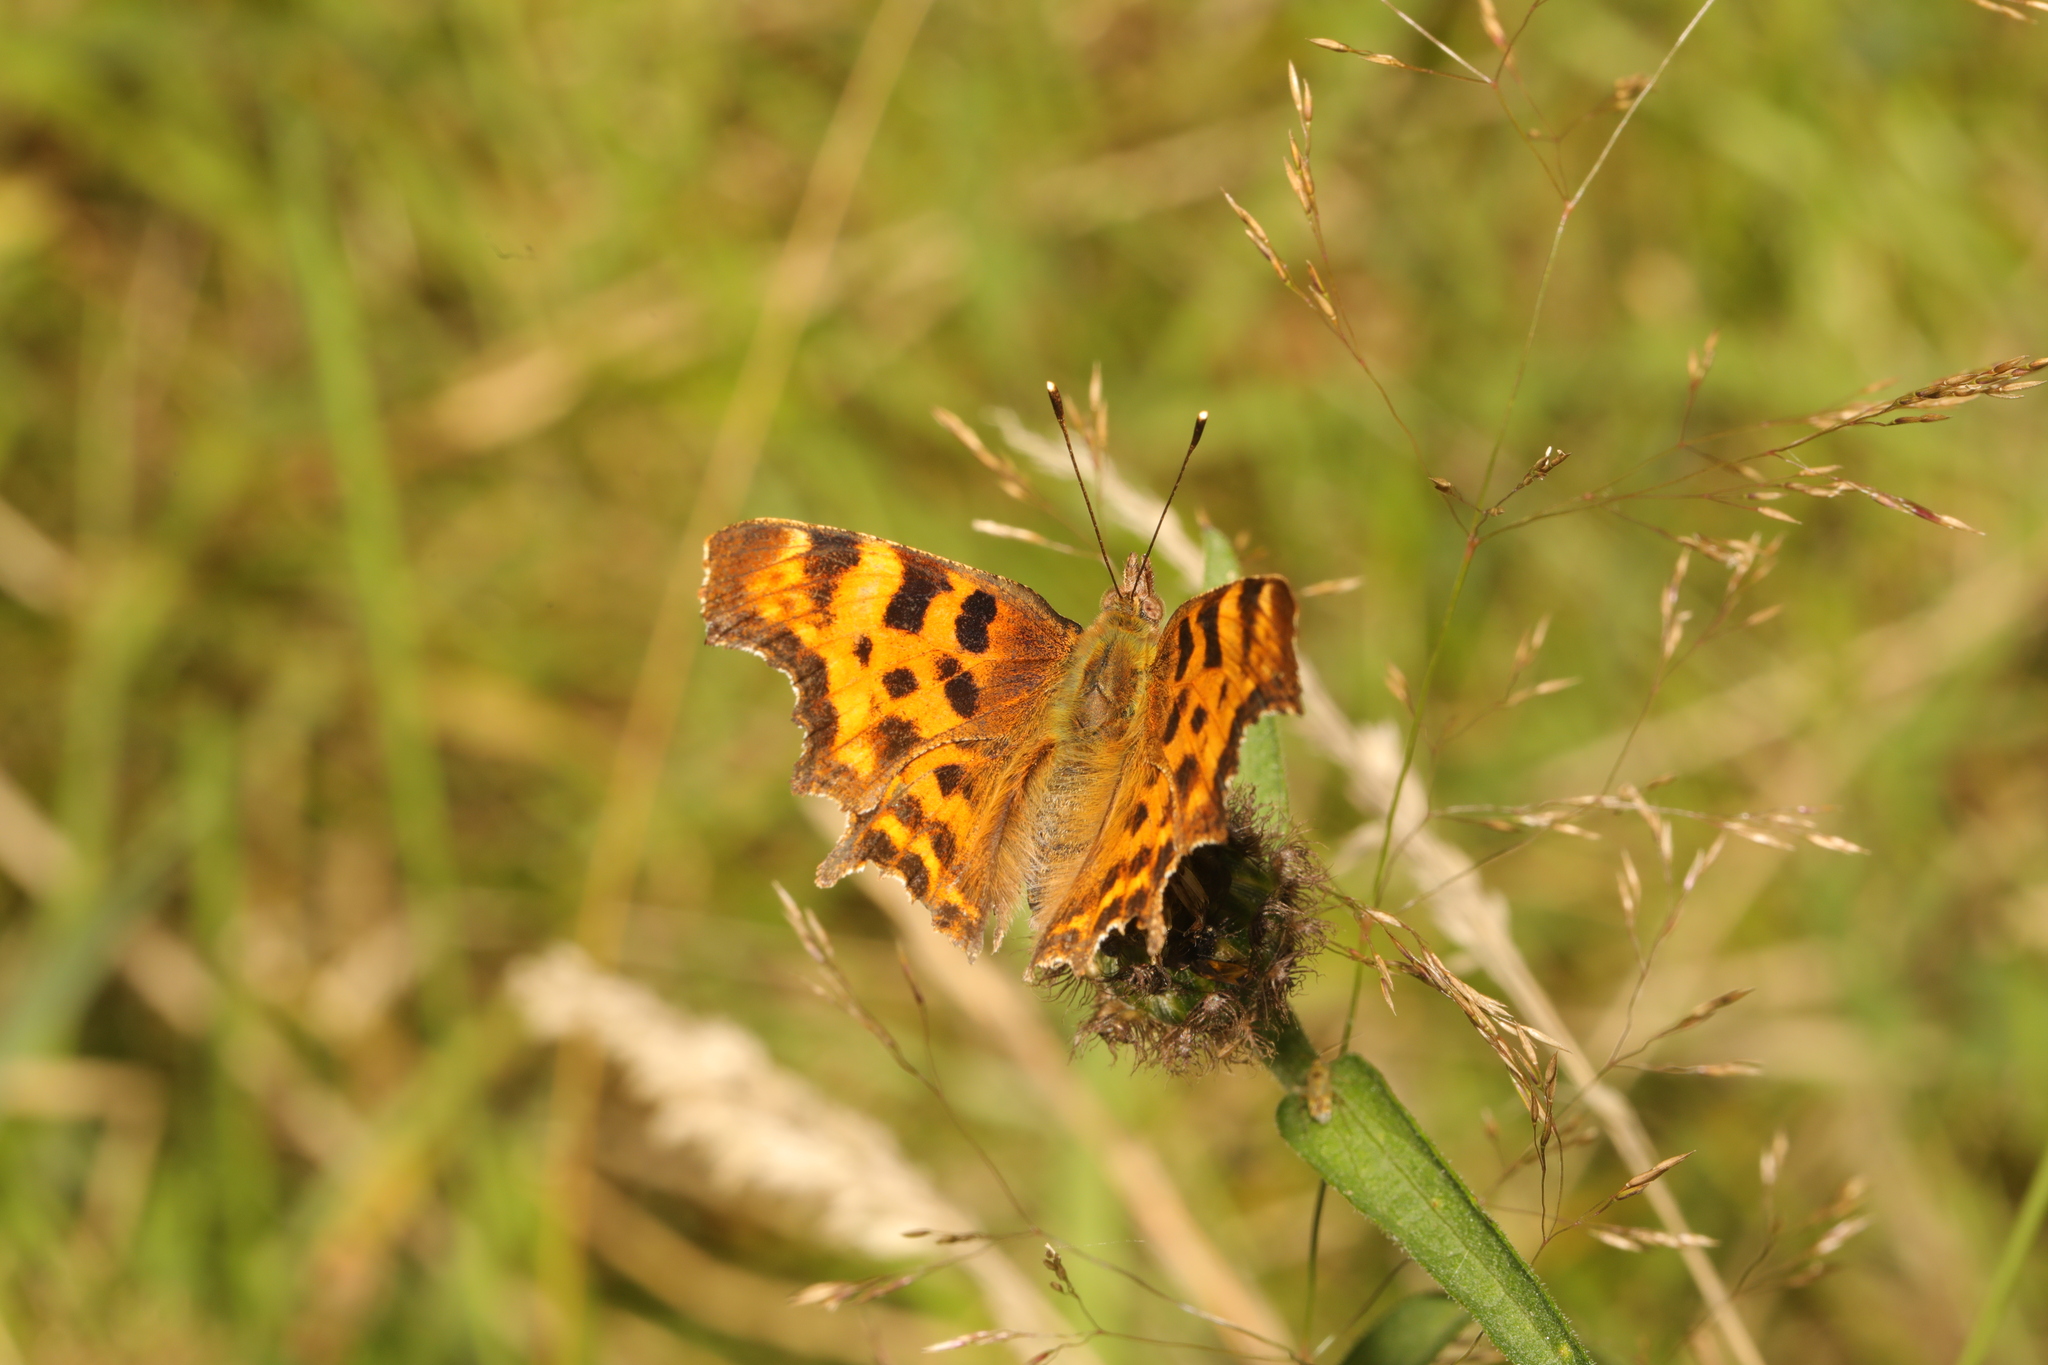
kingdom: Animalia
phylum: Arthropoda
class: Insecta
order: Lepidoptera
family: Nymphalidae
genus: Polygonia
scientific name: Polygonia c-album
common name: Comma
